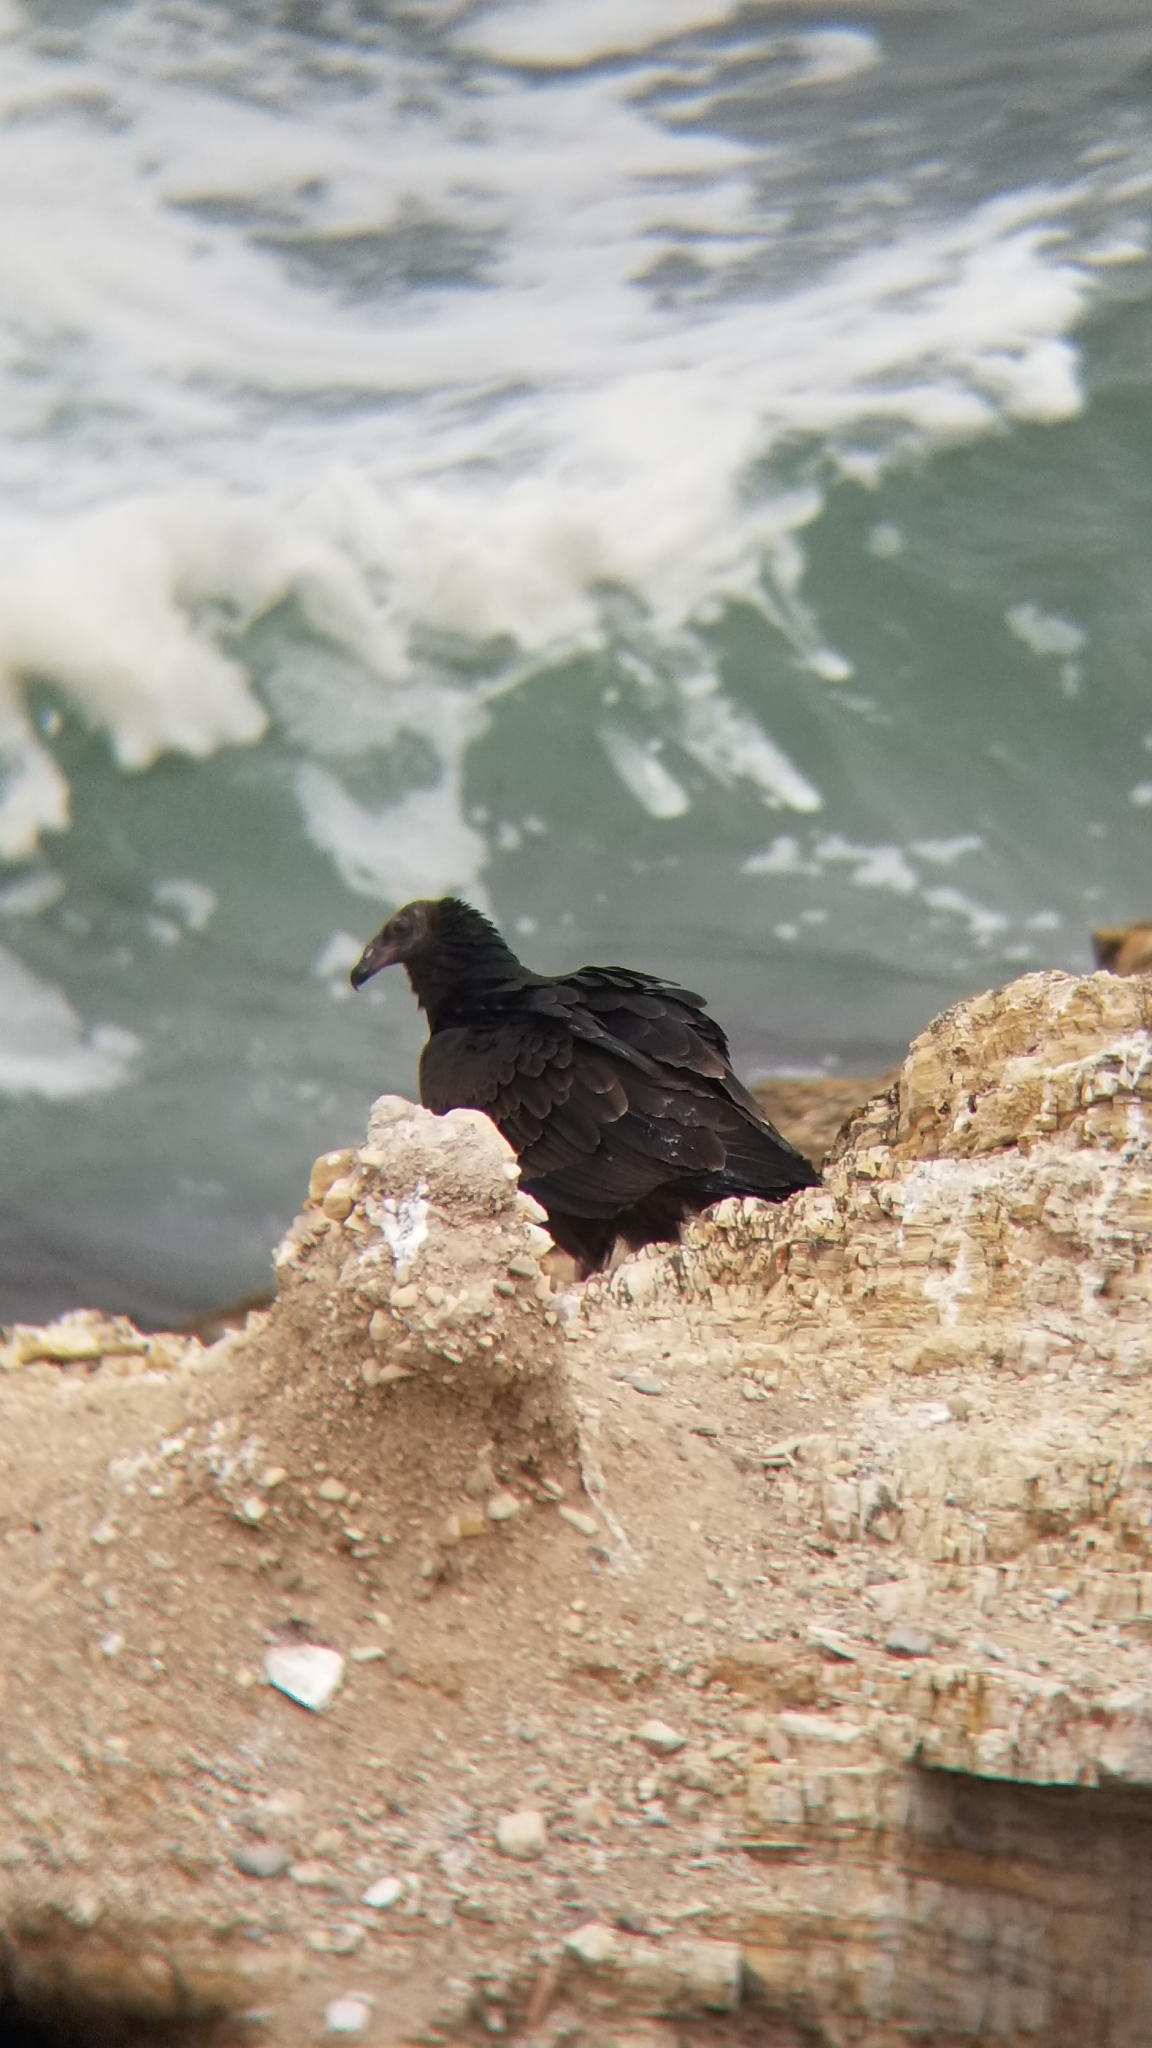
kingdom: Animalia
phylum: Chordata
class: Aves
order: Accipitriformes
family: Cathartidae
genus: Cathartes
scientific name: Cathartes aura
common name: Turkey vulture
